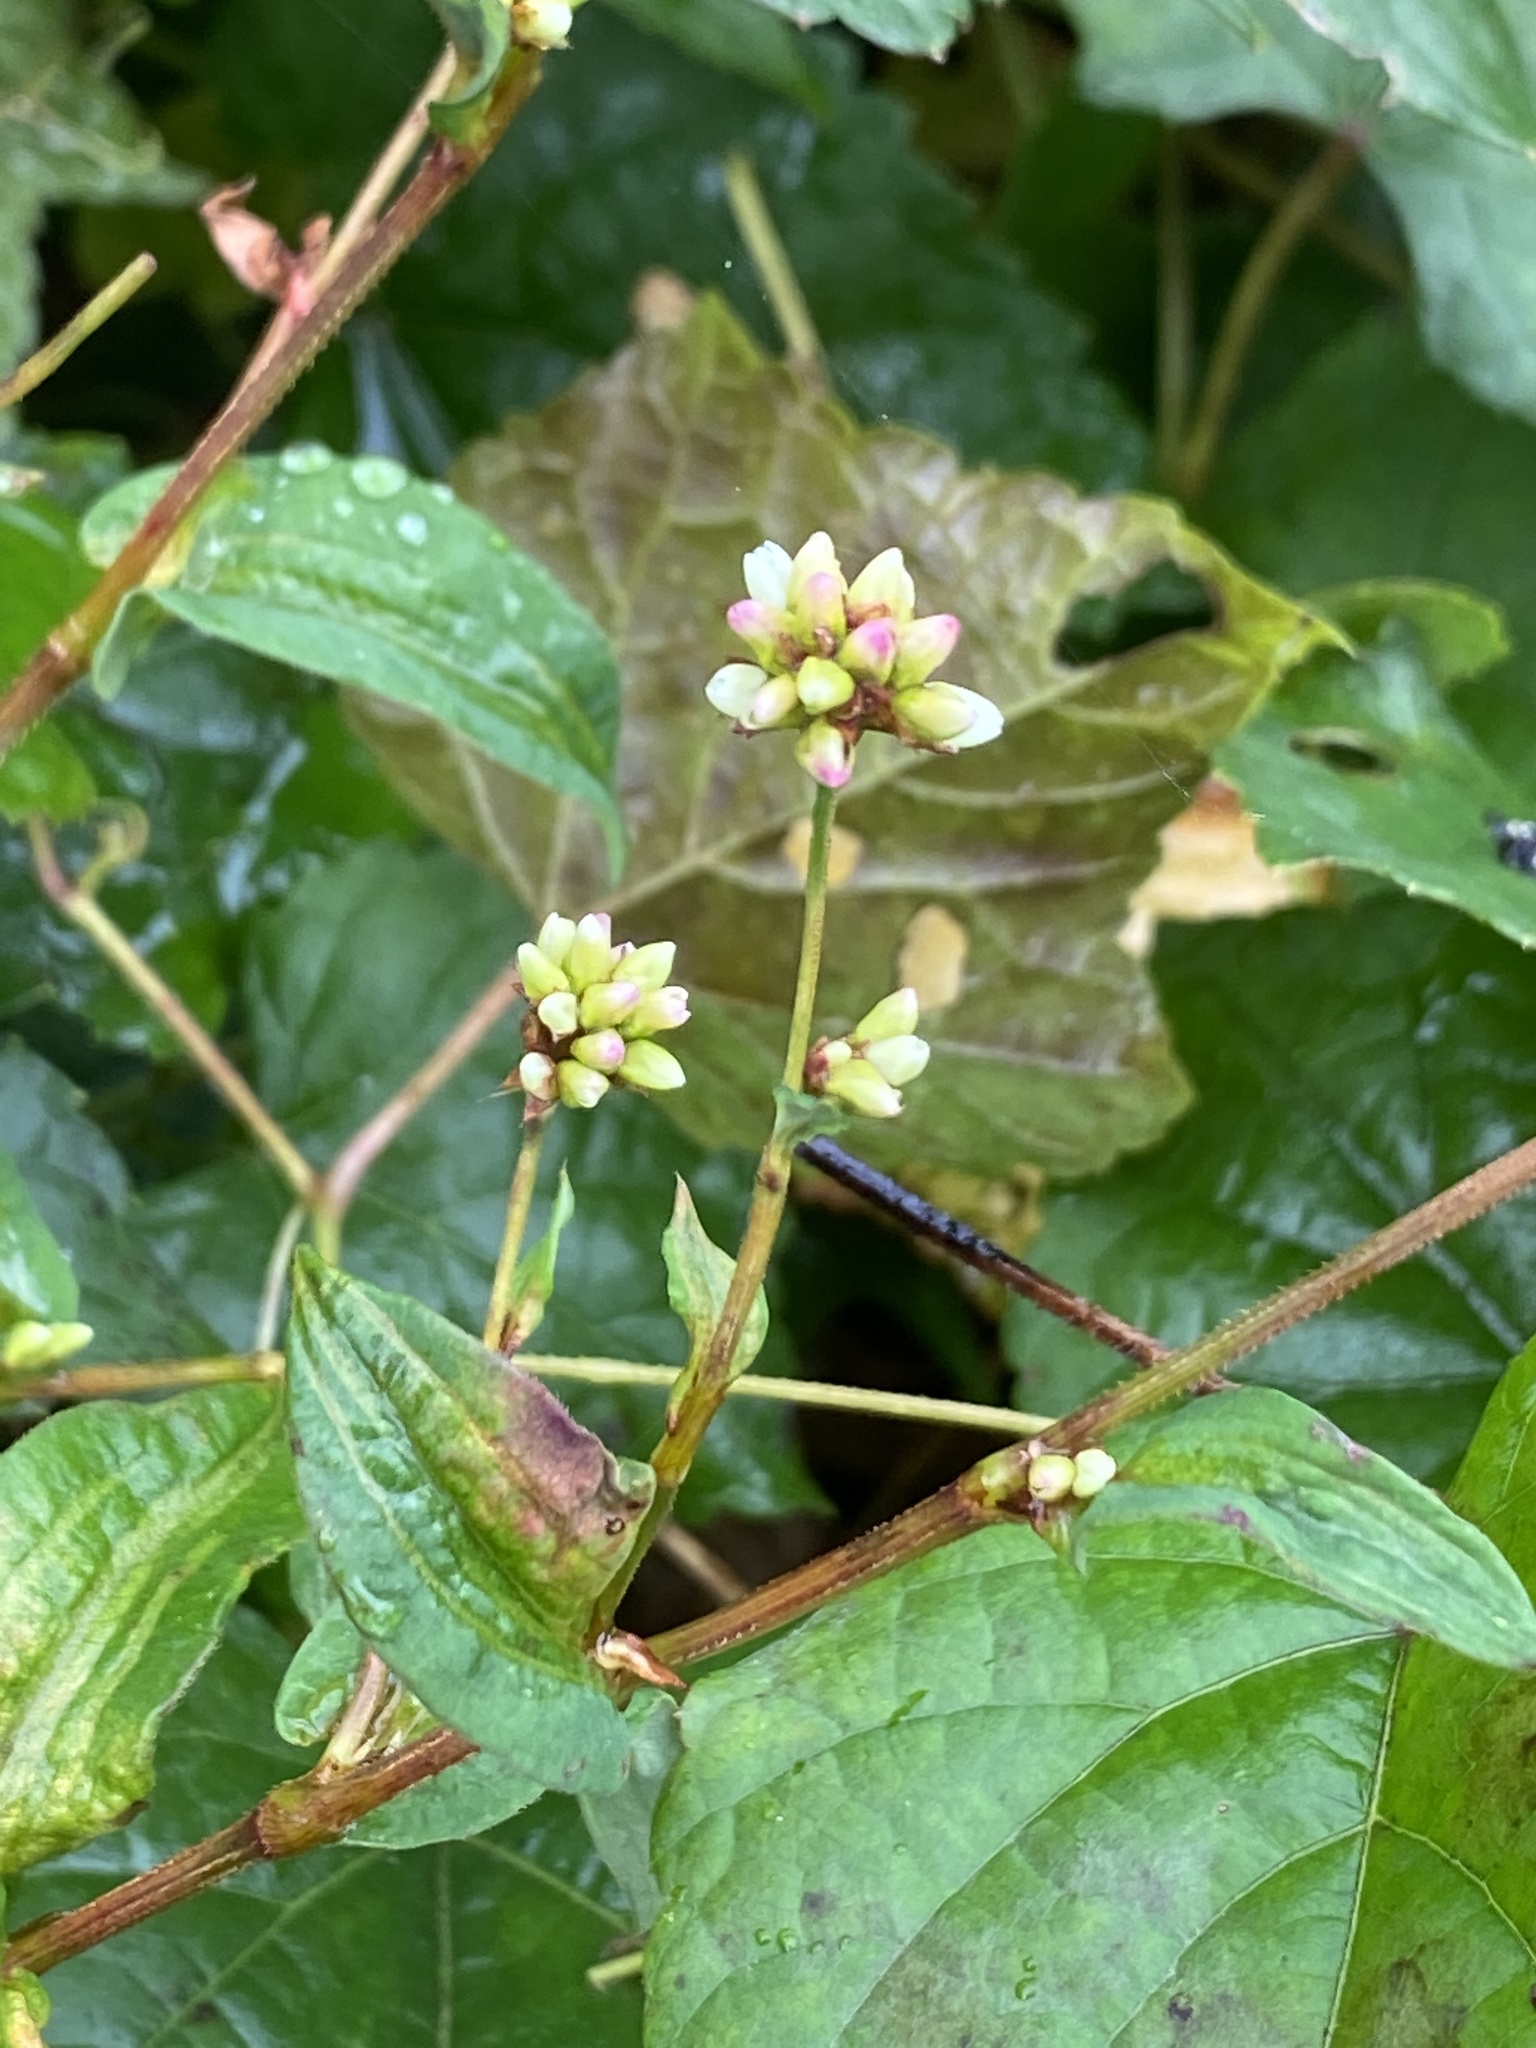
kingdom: Plantae
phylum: Tracheophyta
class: Magnoliopsida
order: Caryophyllales
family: Polygonaceae
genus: Persicaria
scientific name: Persicaria sagittata
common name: American tearthumb
